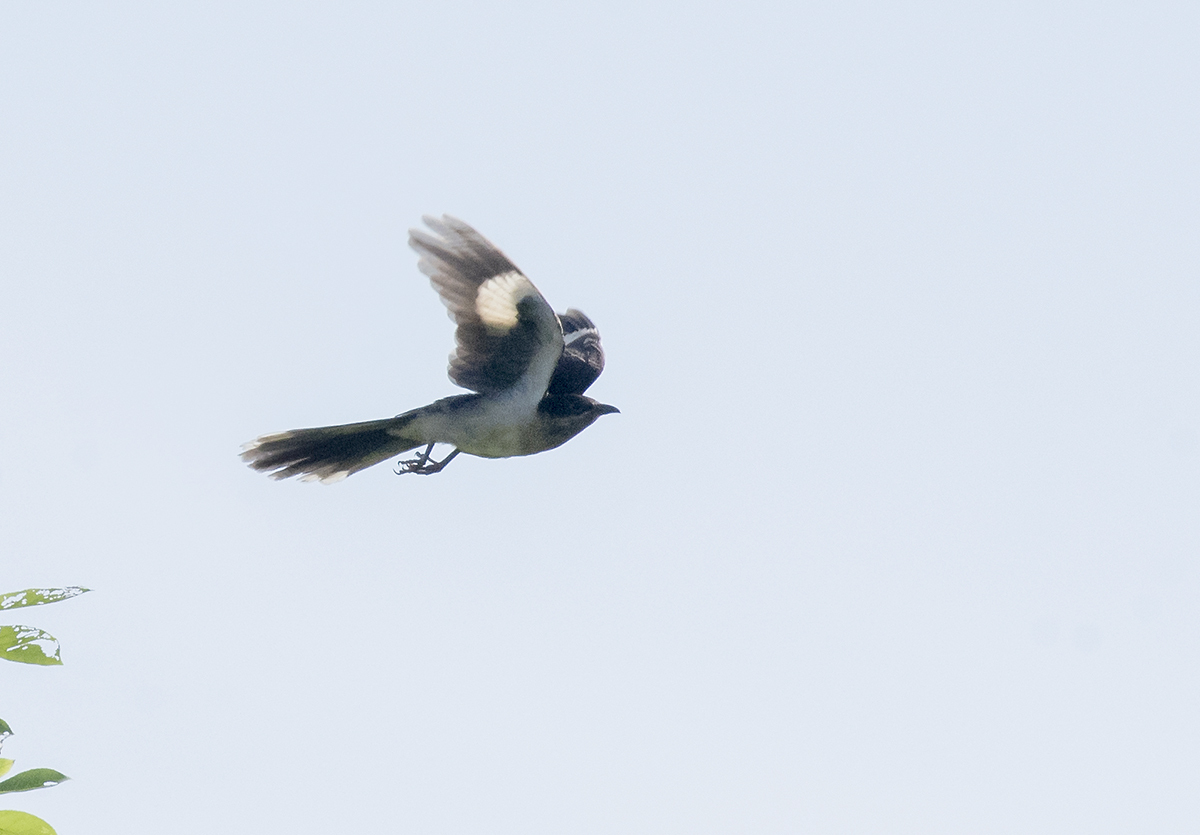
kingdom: Animalia
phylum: Chordata
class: Aves
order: Cuculiformes
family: Cuculidae
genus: Clamator
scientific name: Clamator jacobinus
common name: Jacobin cuckoo
